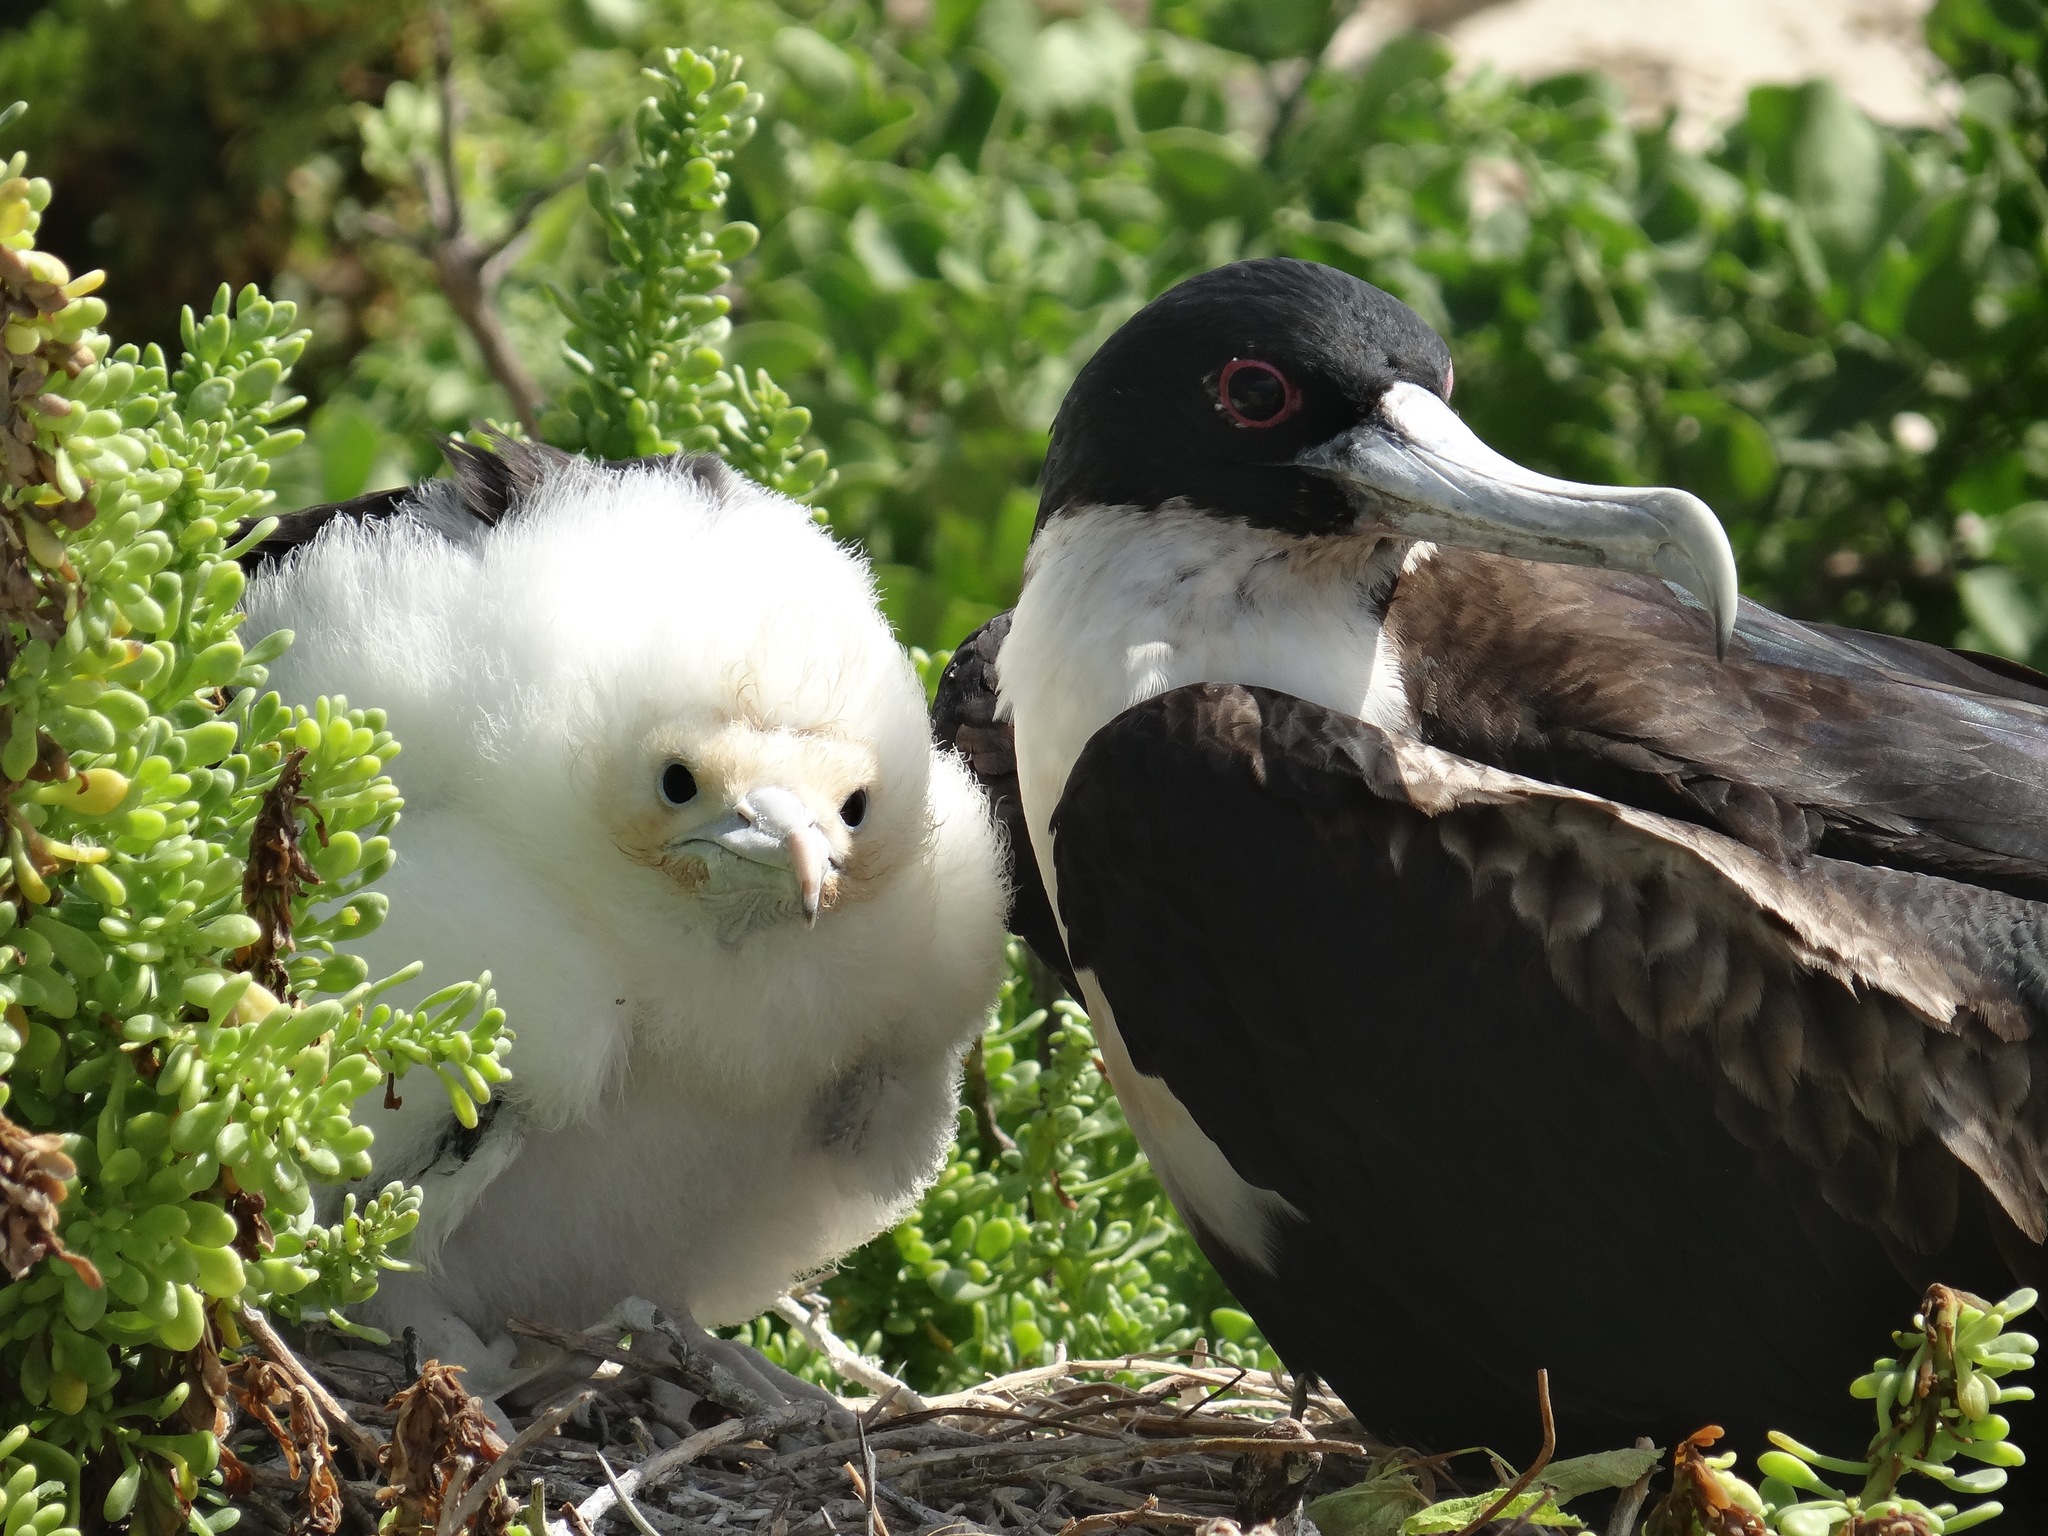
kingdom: Animalia
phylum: Chordata
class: Aves
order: Suliformes
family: Fregatidae
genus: Fregata
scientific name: Fregata minor
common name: Great frigatebird
